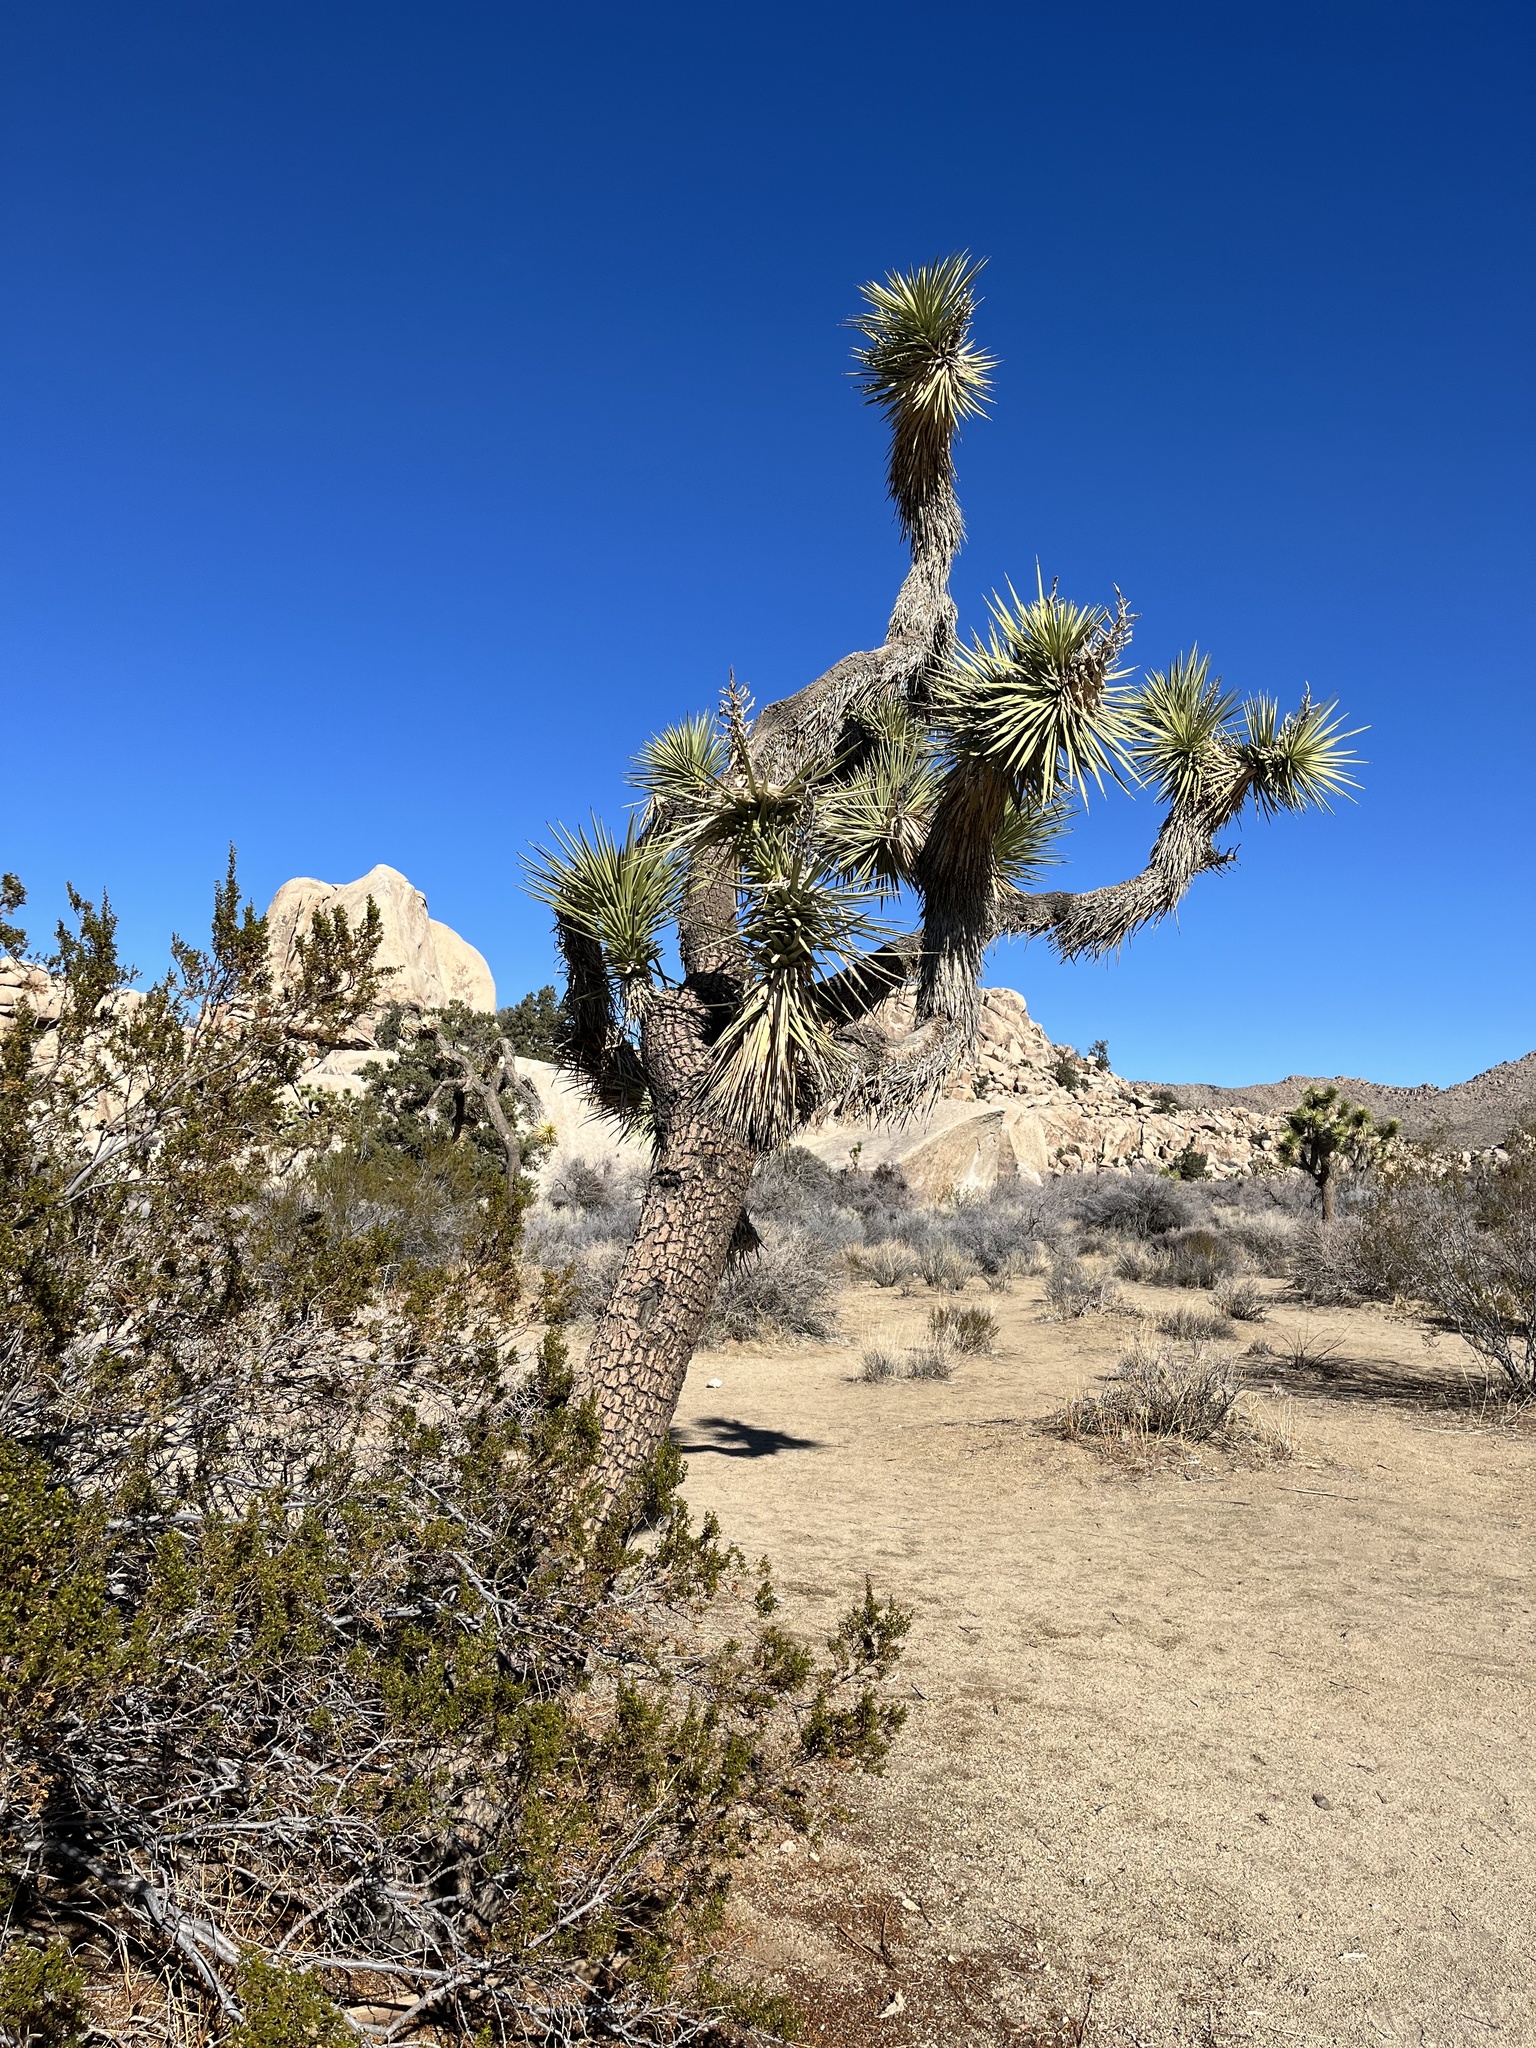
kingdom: Plantae
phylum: Tracheophyta
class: Liliopsida
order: Asparagales
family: Asparagaceae
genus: Yucca
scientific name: Yucca brevifolia
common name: Joshua tree
